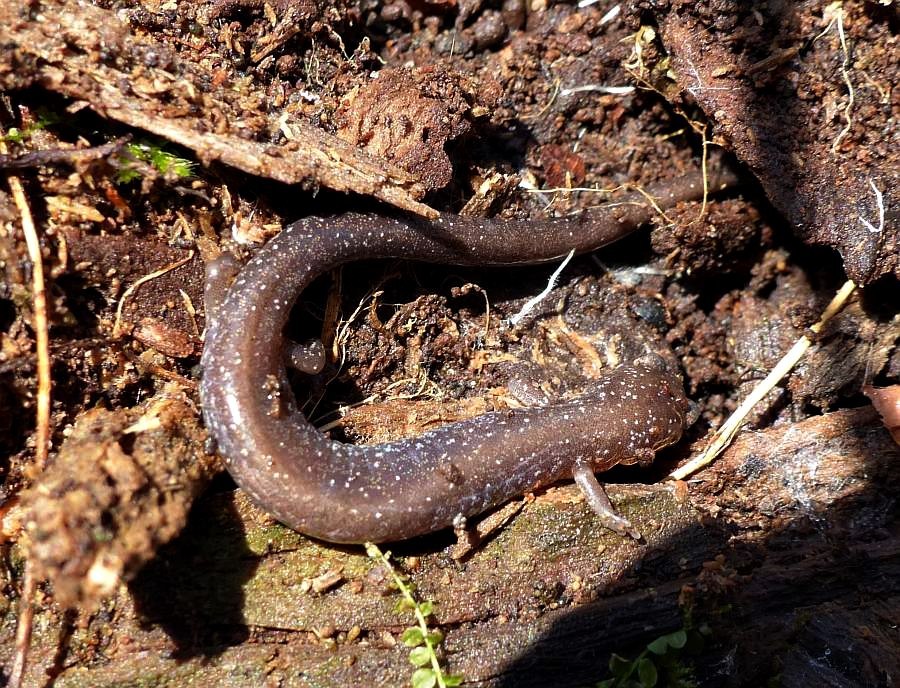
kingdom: Animalia
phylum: Chordata
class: Amphibia
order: Caudata
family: Plethodontidae
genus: Plethodon
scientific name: Plethodon cinereus
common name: Redback salamander
